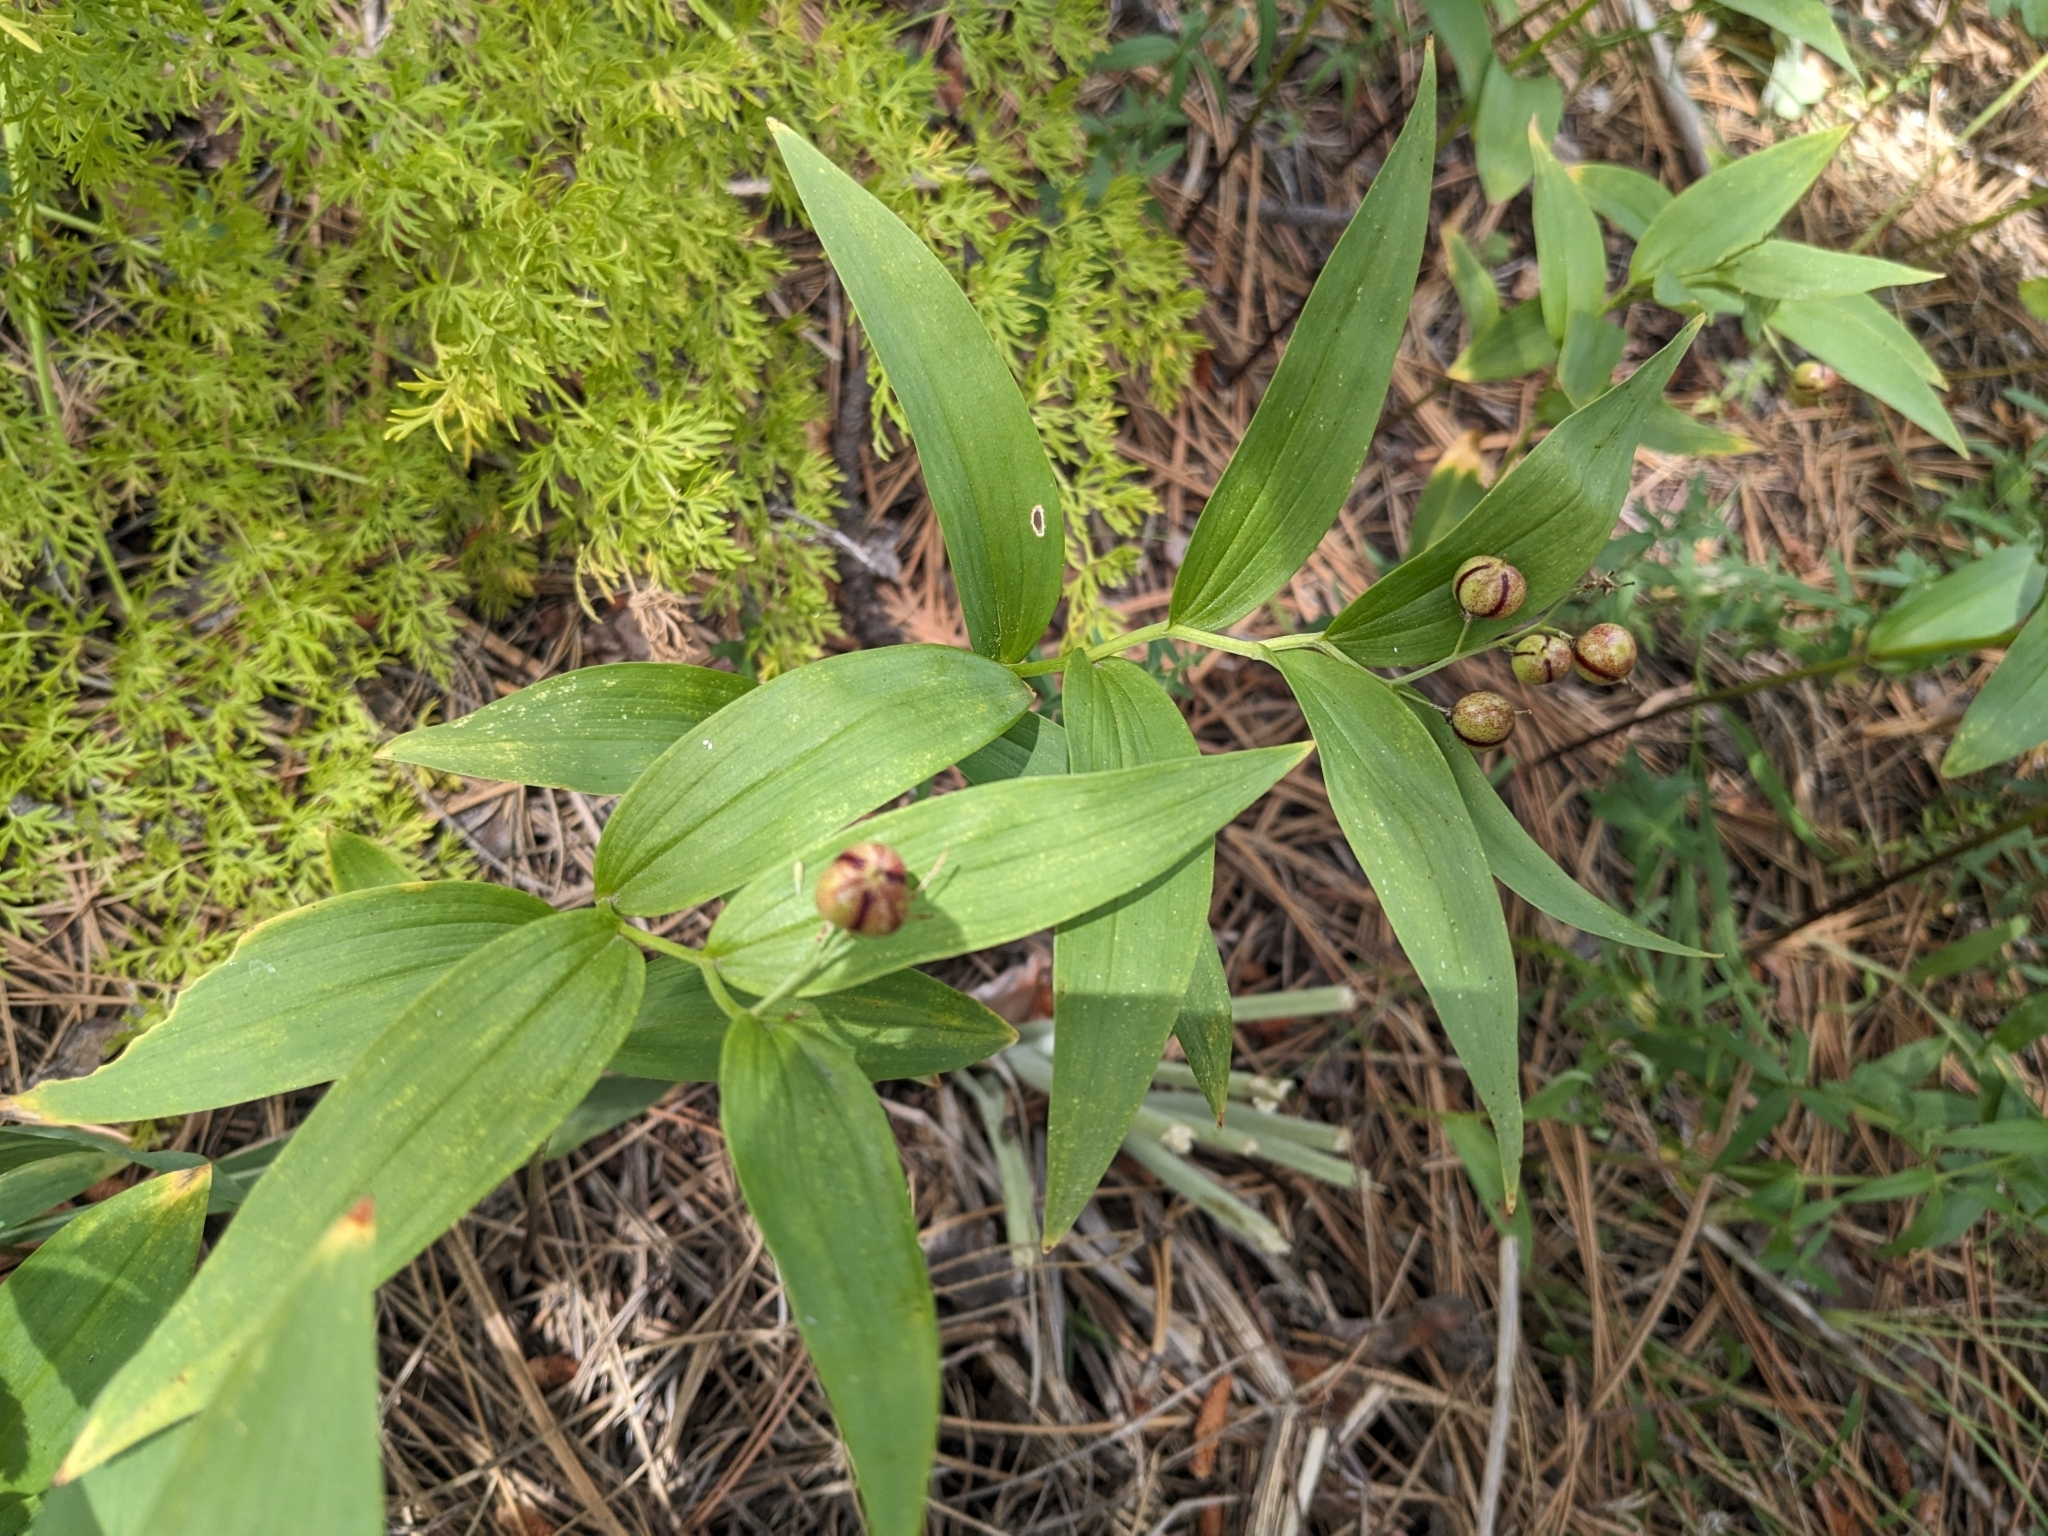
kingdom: Plantae
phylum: Tracheophyta
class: Liliopsida
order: Asparagales
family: Asparagaceae
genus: Maianthemum
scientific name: Maianthemum stellatum
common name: Little false solomon's seal
